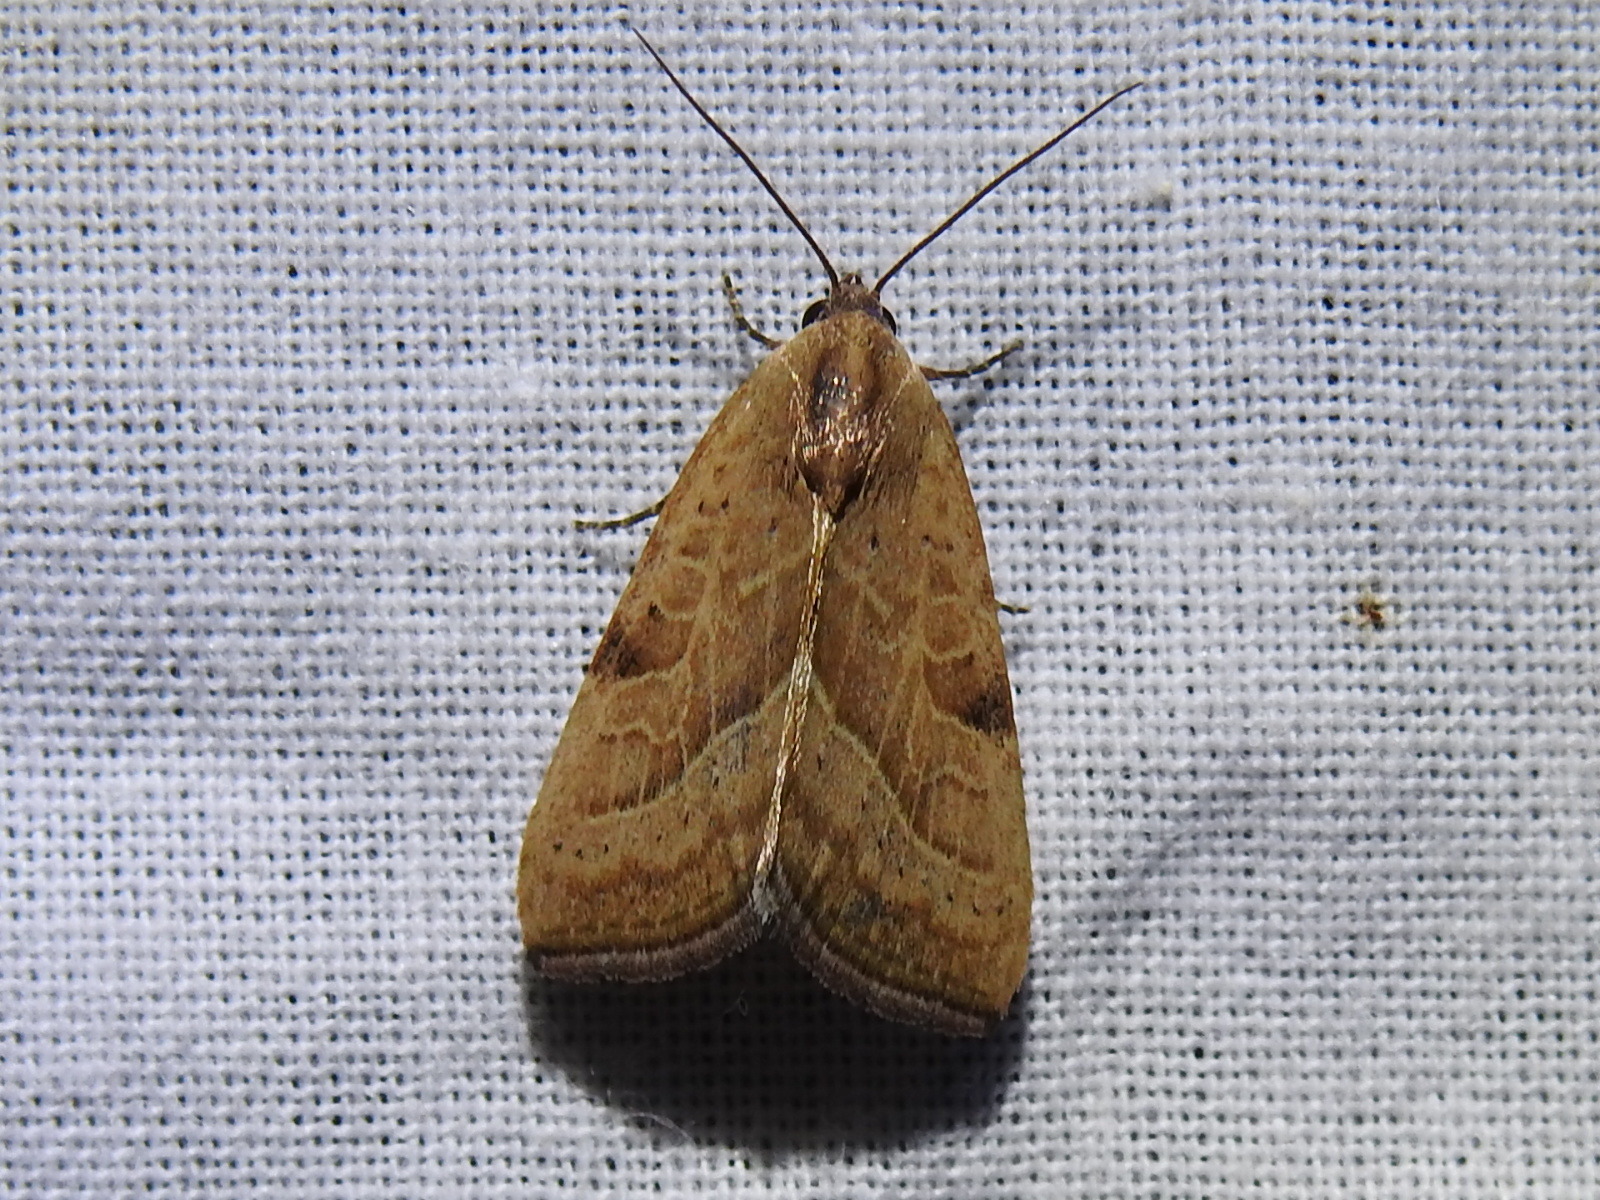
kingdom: Animalia
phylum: Arthropoda
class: Insecta
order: Lepidoptera
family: Noctuidae
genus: Galgula
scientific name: Galgula partita
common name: Wedgeling
